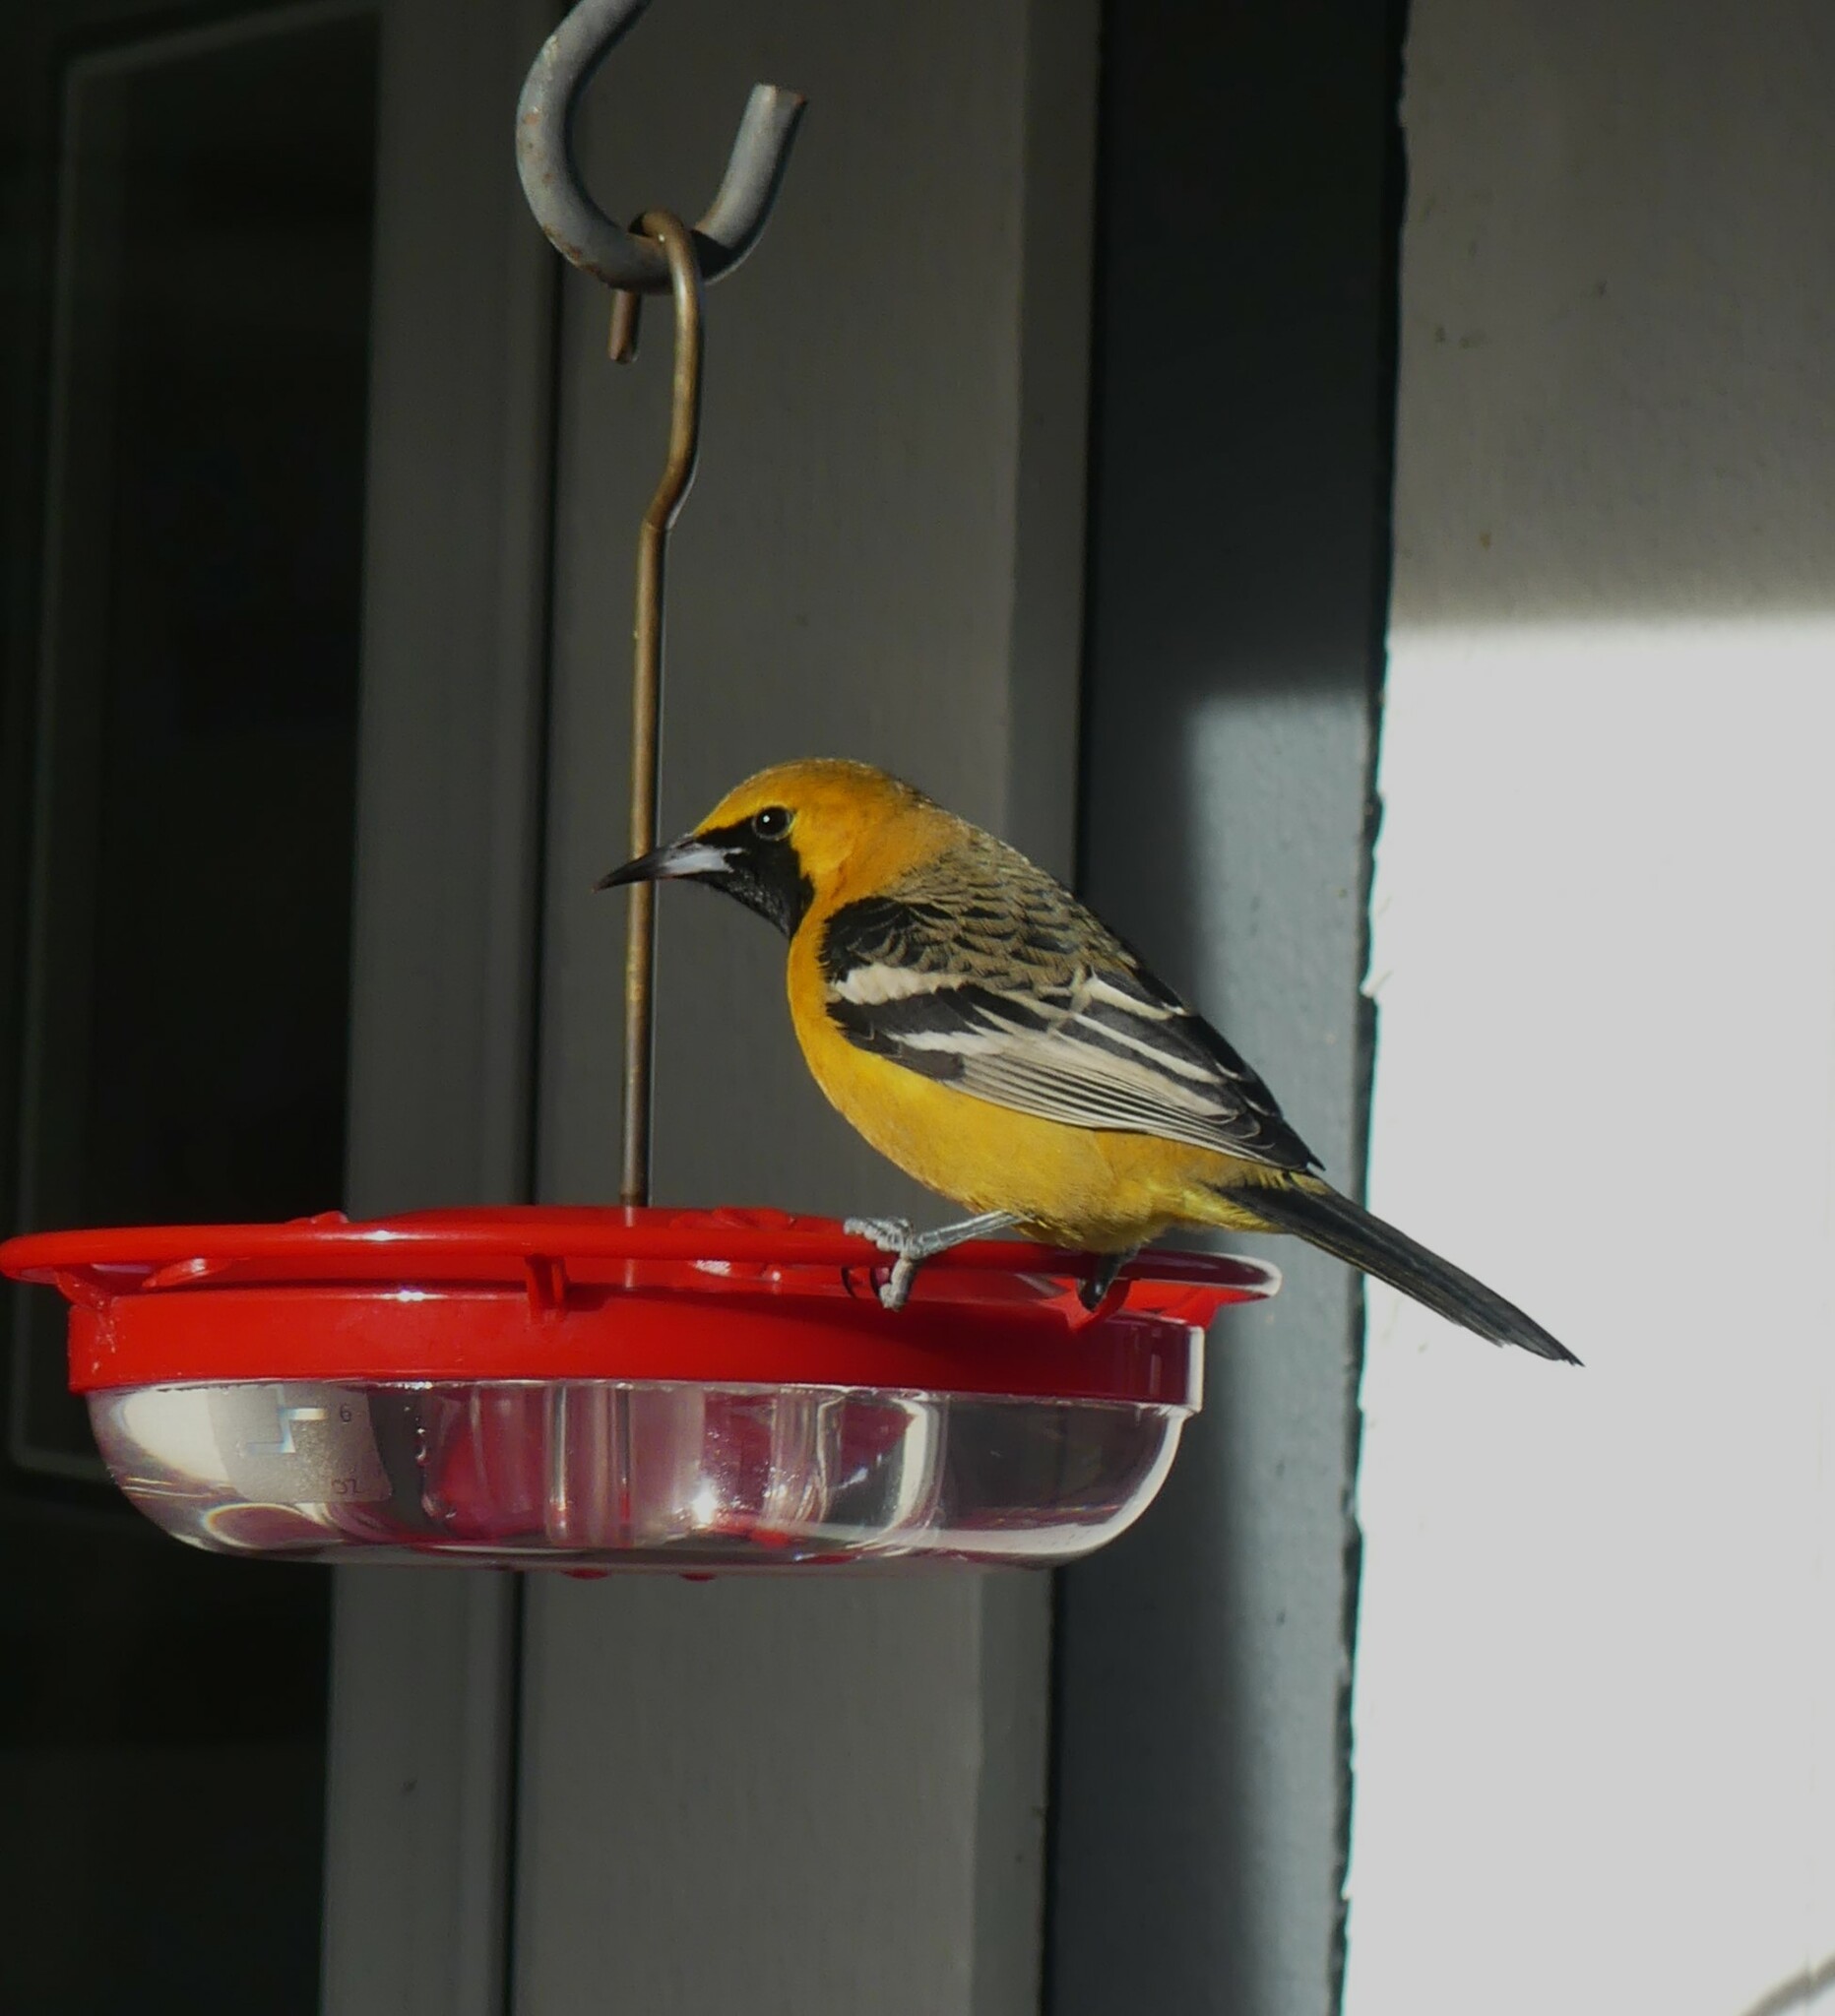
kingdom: Animalia
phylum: Chordata
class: Aves
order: Passeriformes
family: Icteridae
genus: Icterus
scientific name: Icterus cucullatus
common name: Hooded oriole
